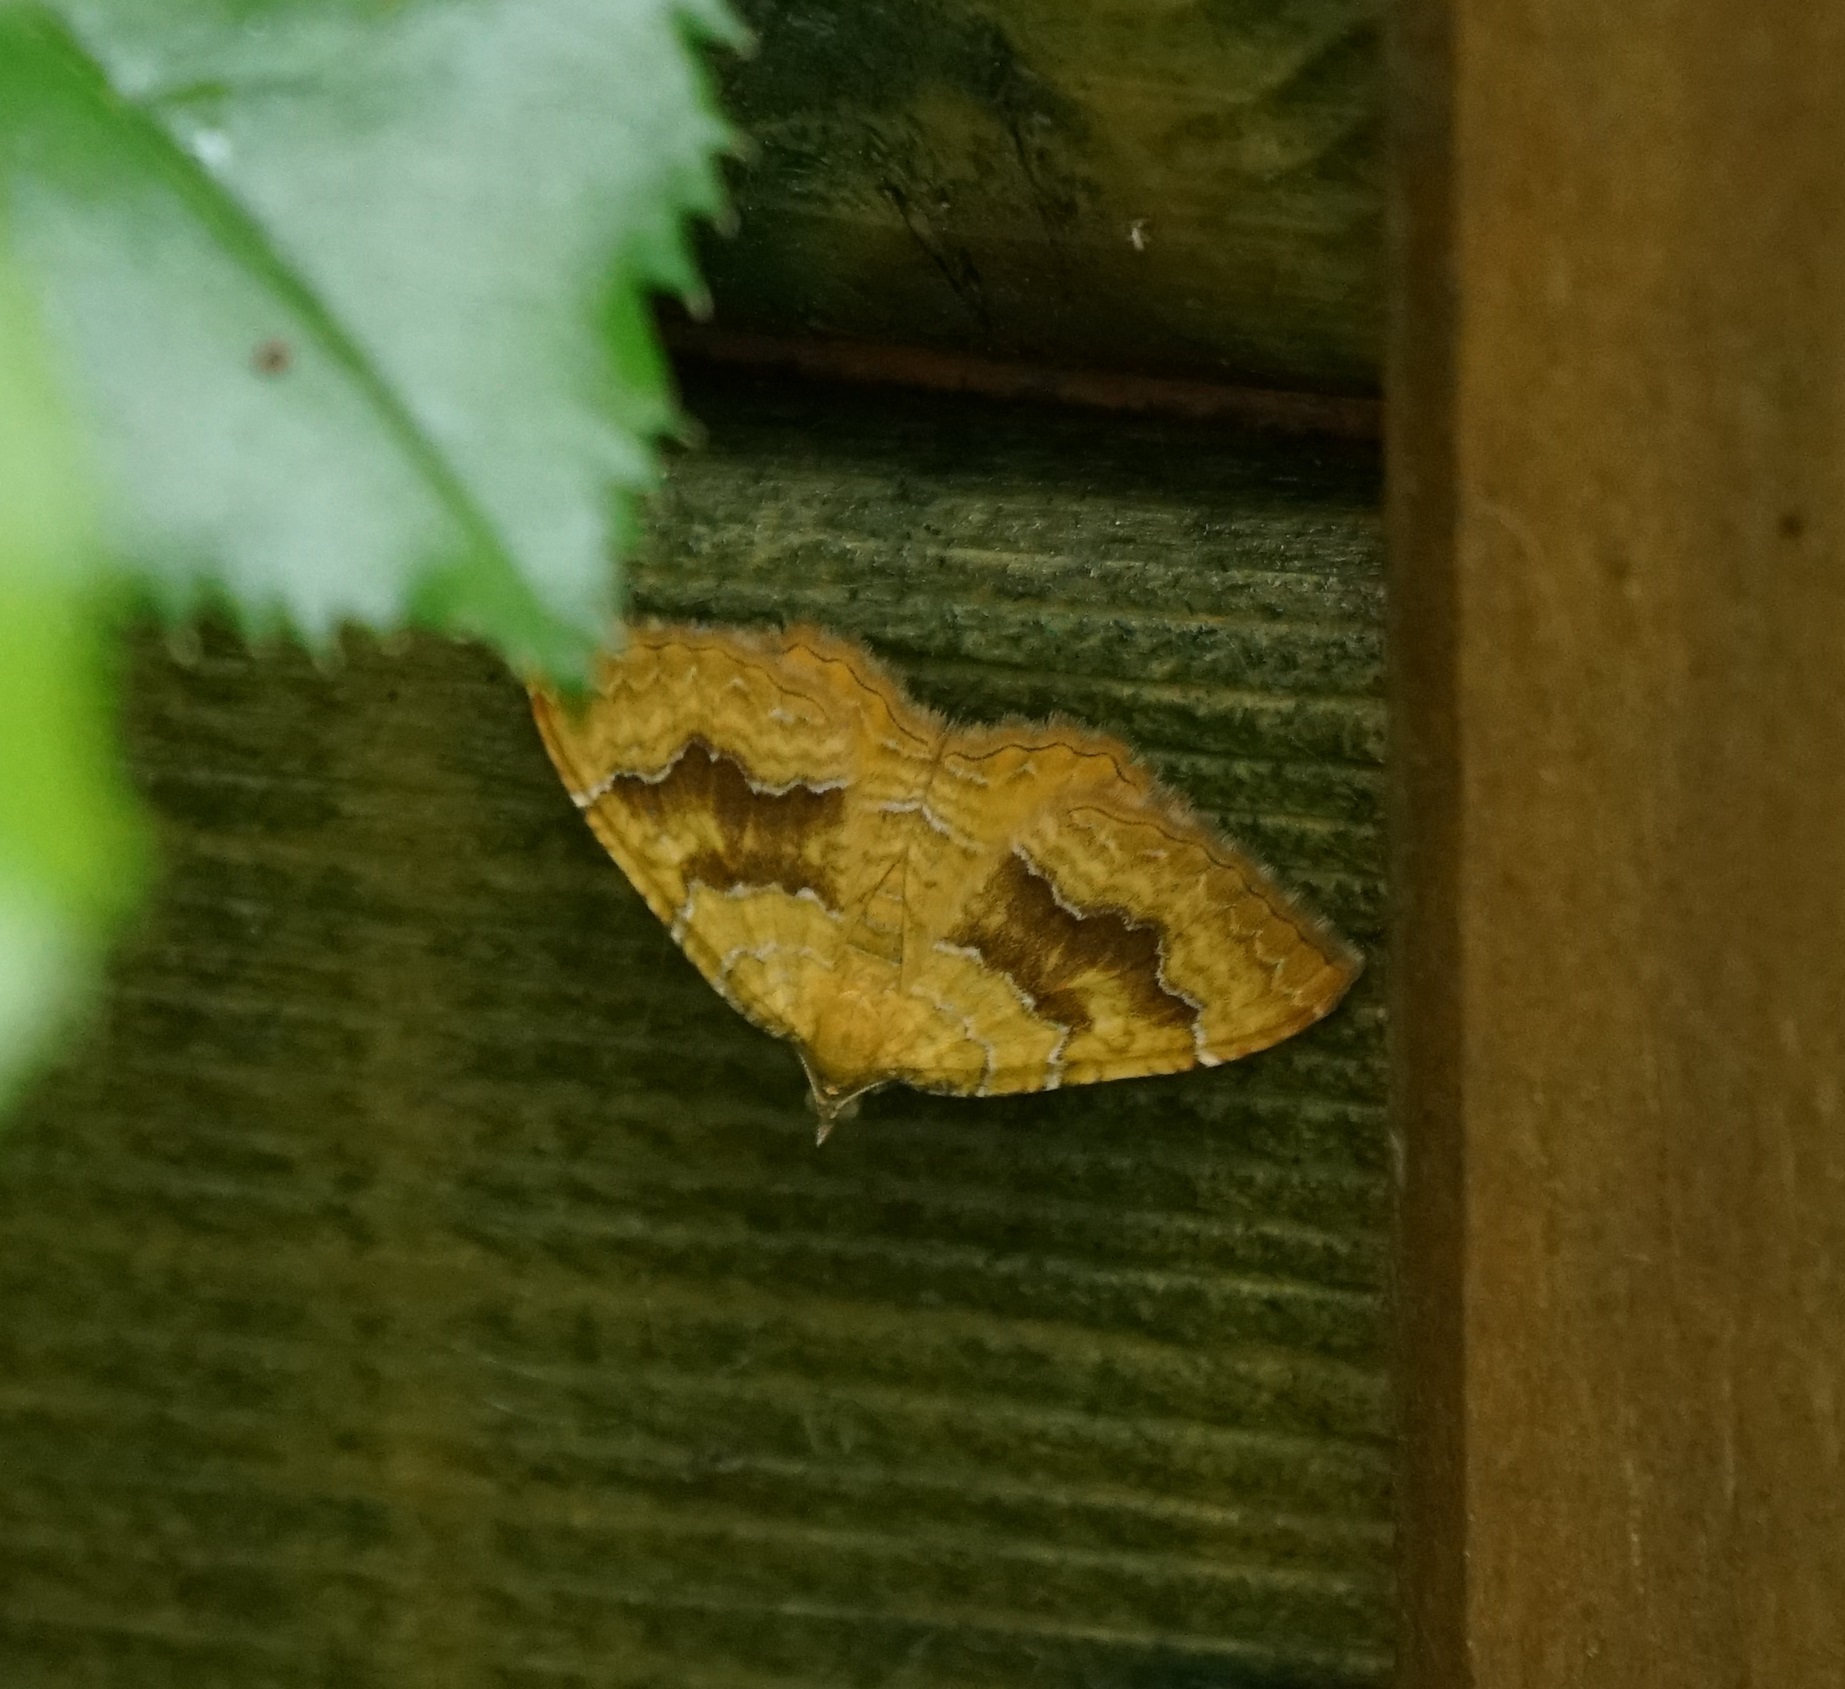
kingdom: Animalia
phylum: Arthropoda
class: Insecta
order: Lepidoptera
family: Geometridae
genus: Camptogramma
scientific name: Camptogramma bilineata
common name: Yellow shell
